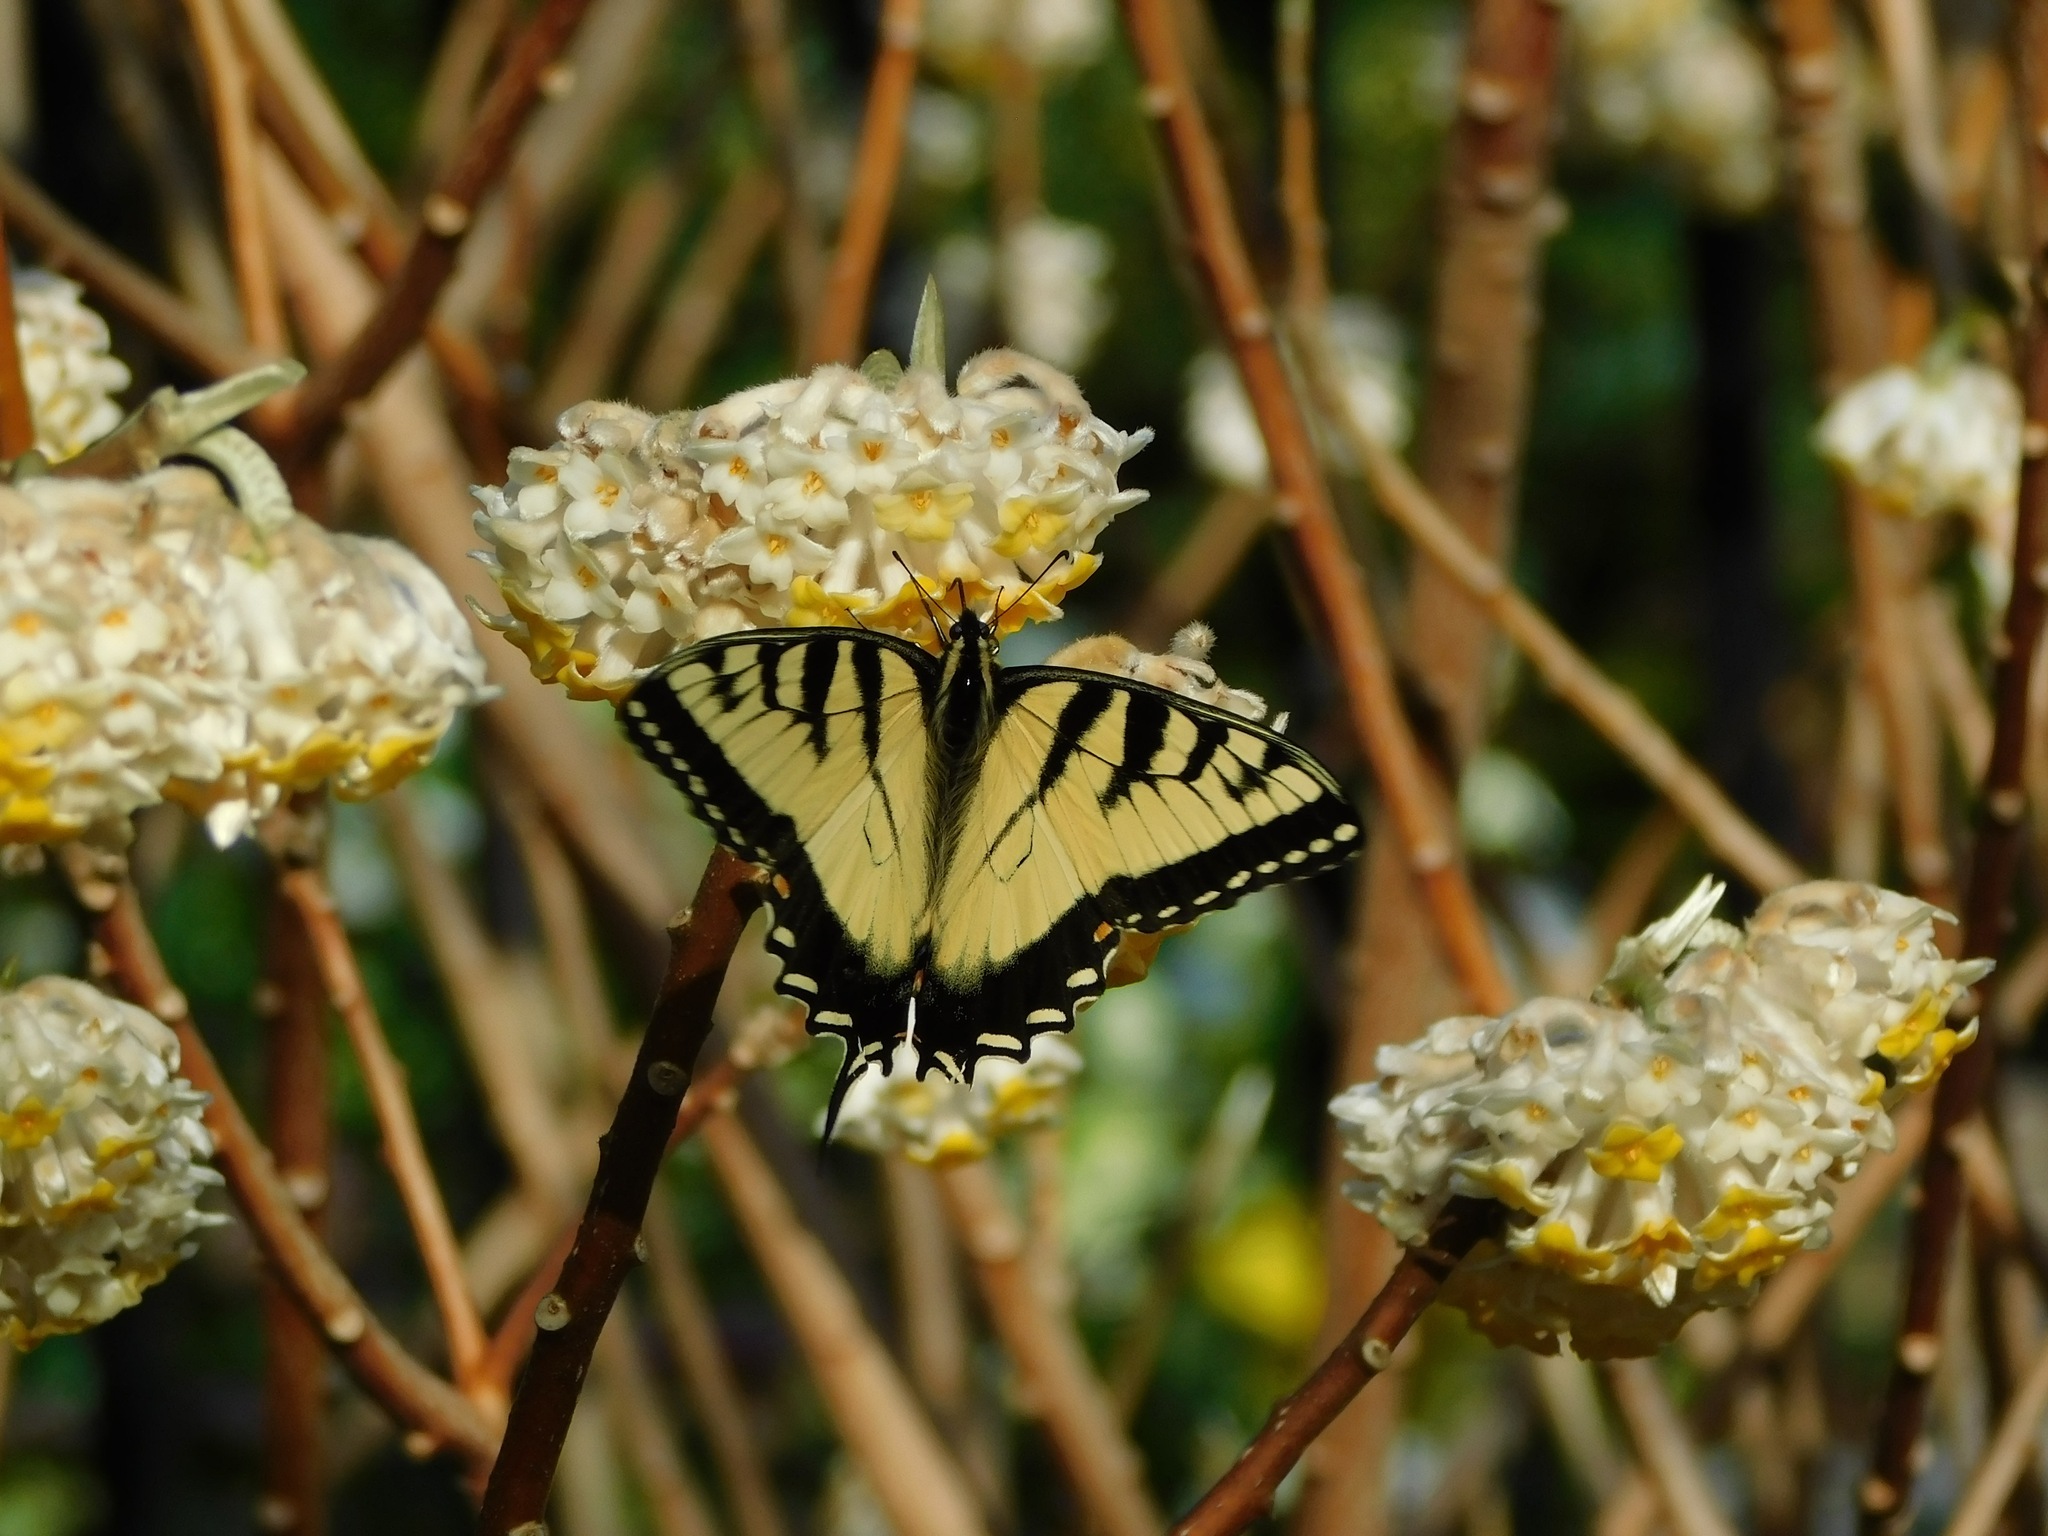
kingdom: Animalia
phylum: Arthropoda
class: Insecta
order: Lepidoptera
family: Papilionidae
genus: Papilio
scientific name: Papilio glaucus
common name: Tiger swallowtail
